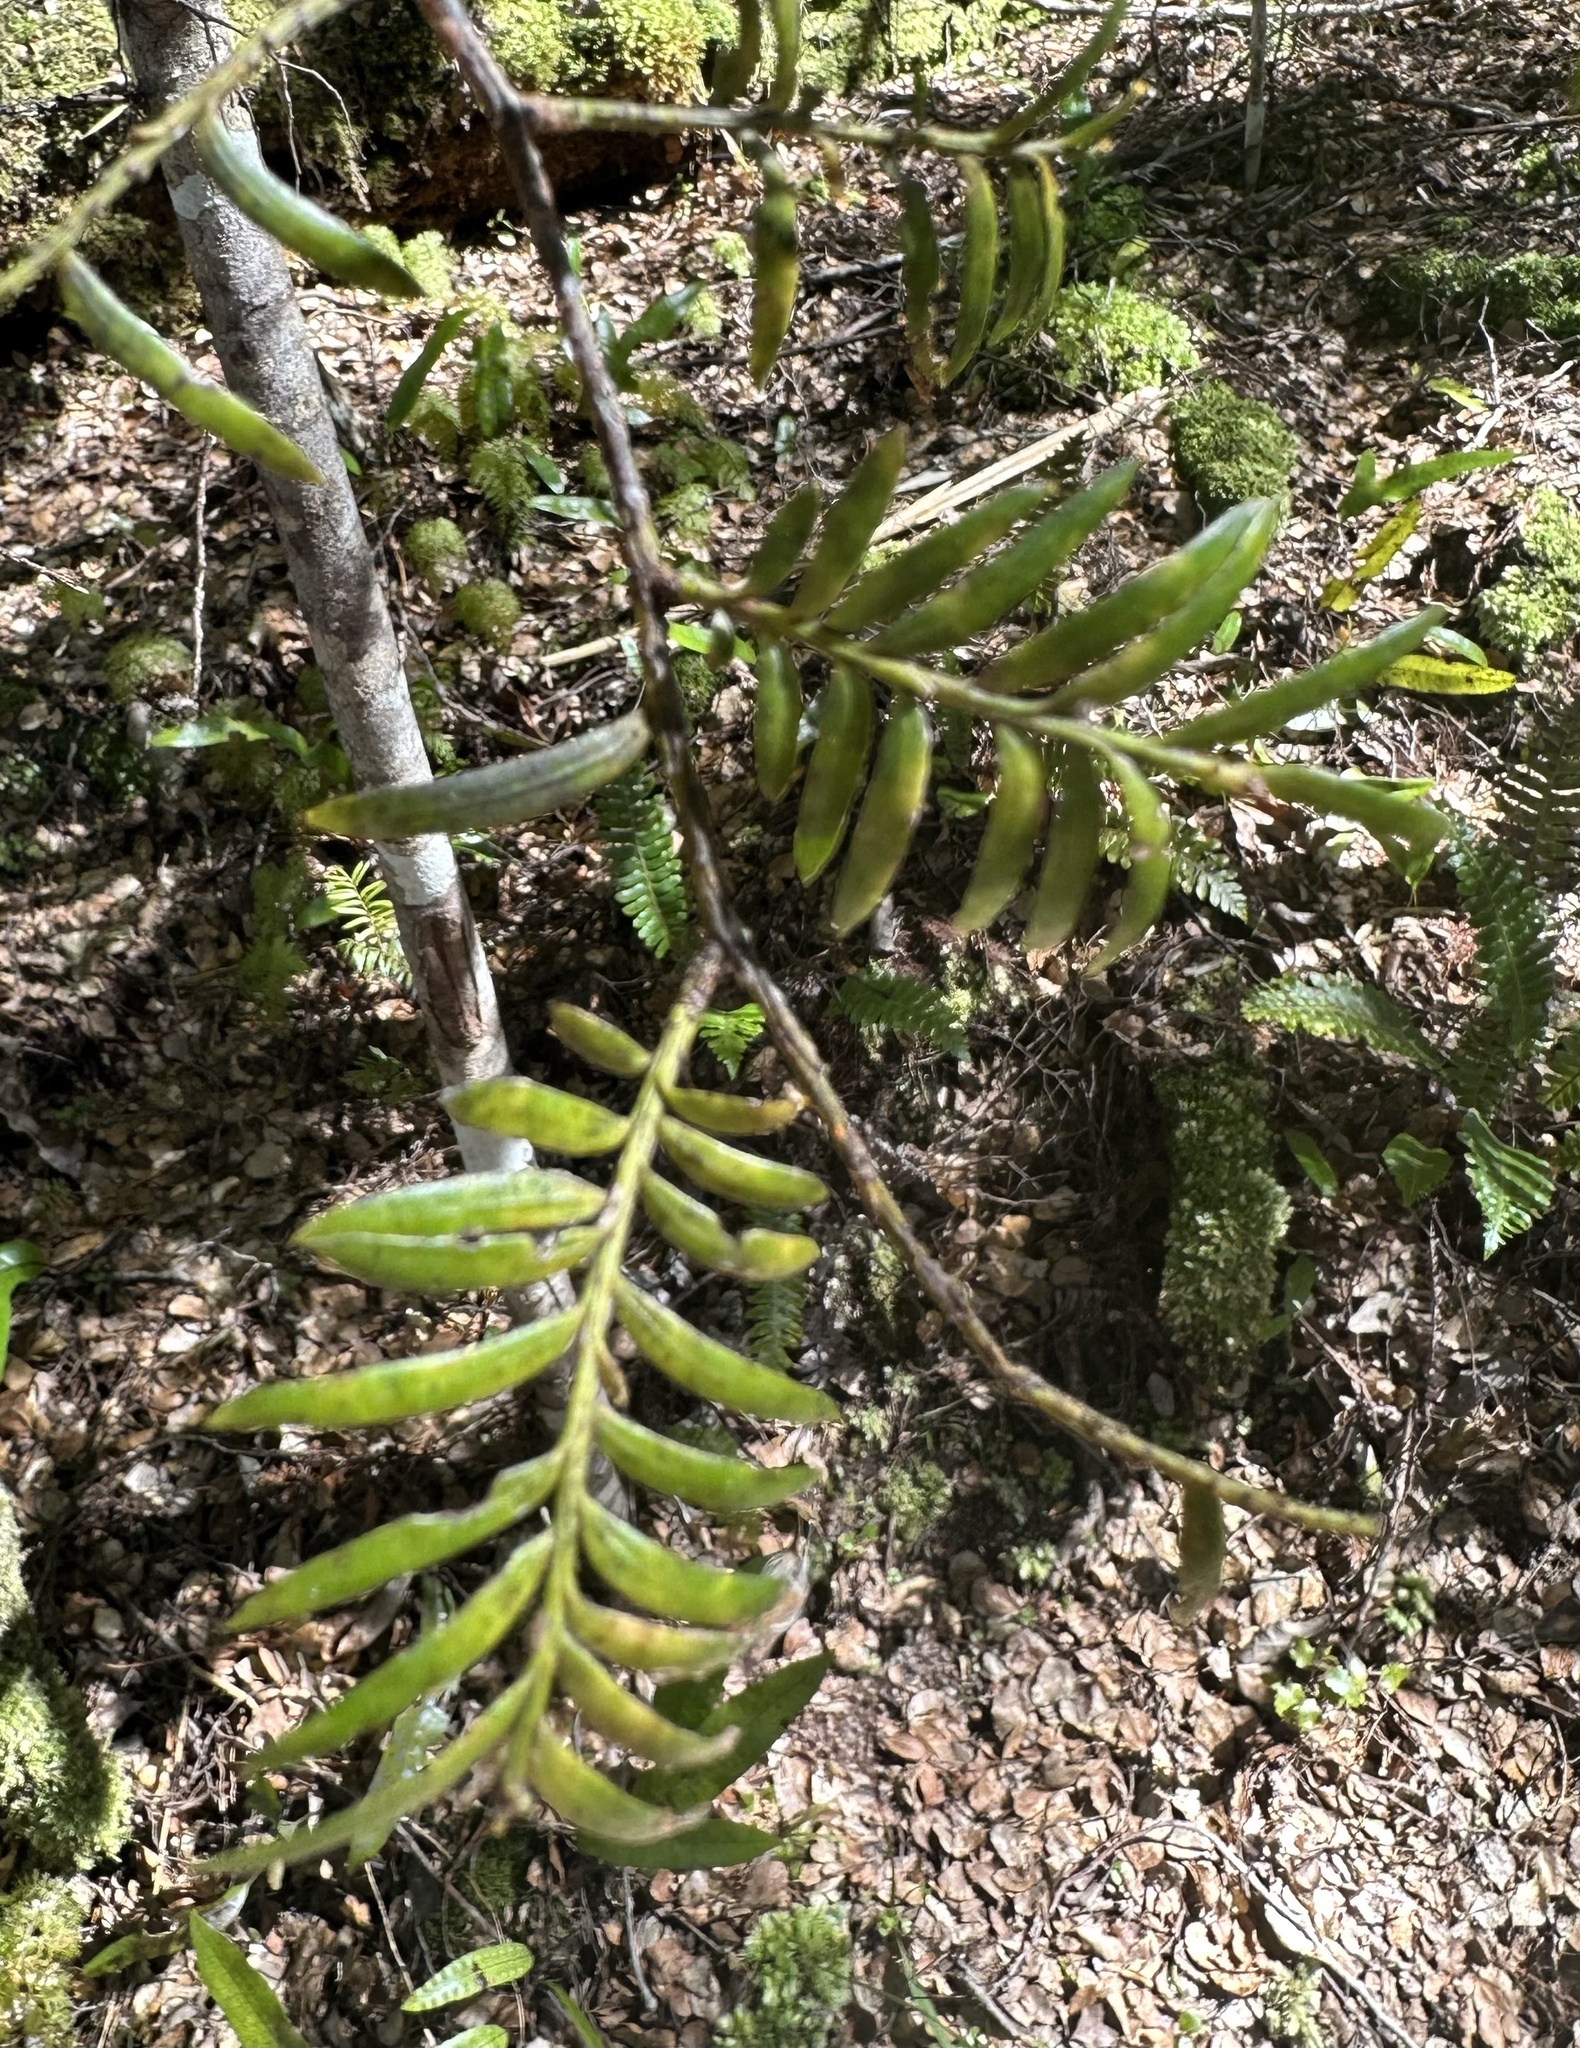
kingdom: Plantae
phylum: Tracheophyta
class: Pinopsida
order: Pinales
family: Podocarpaceae
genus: Prumnopitys
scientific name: Prumnopitys ferruginea
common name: Brown pine
